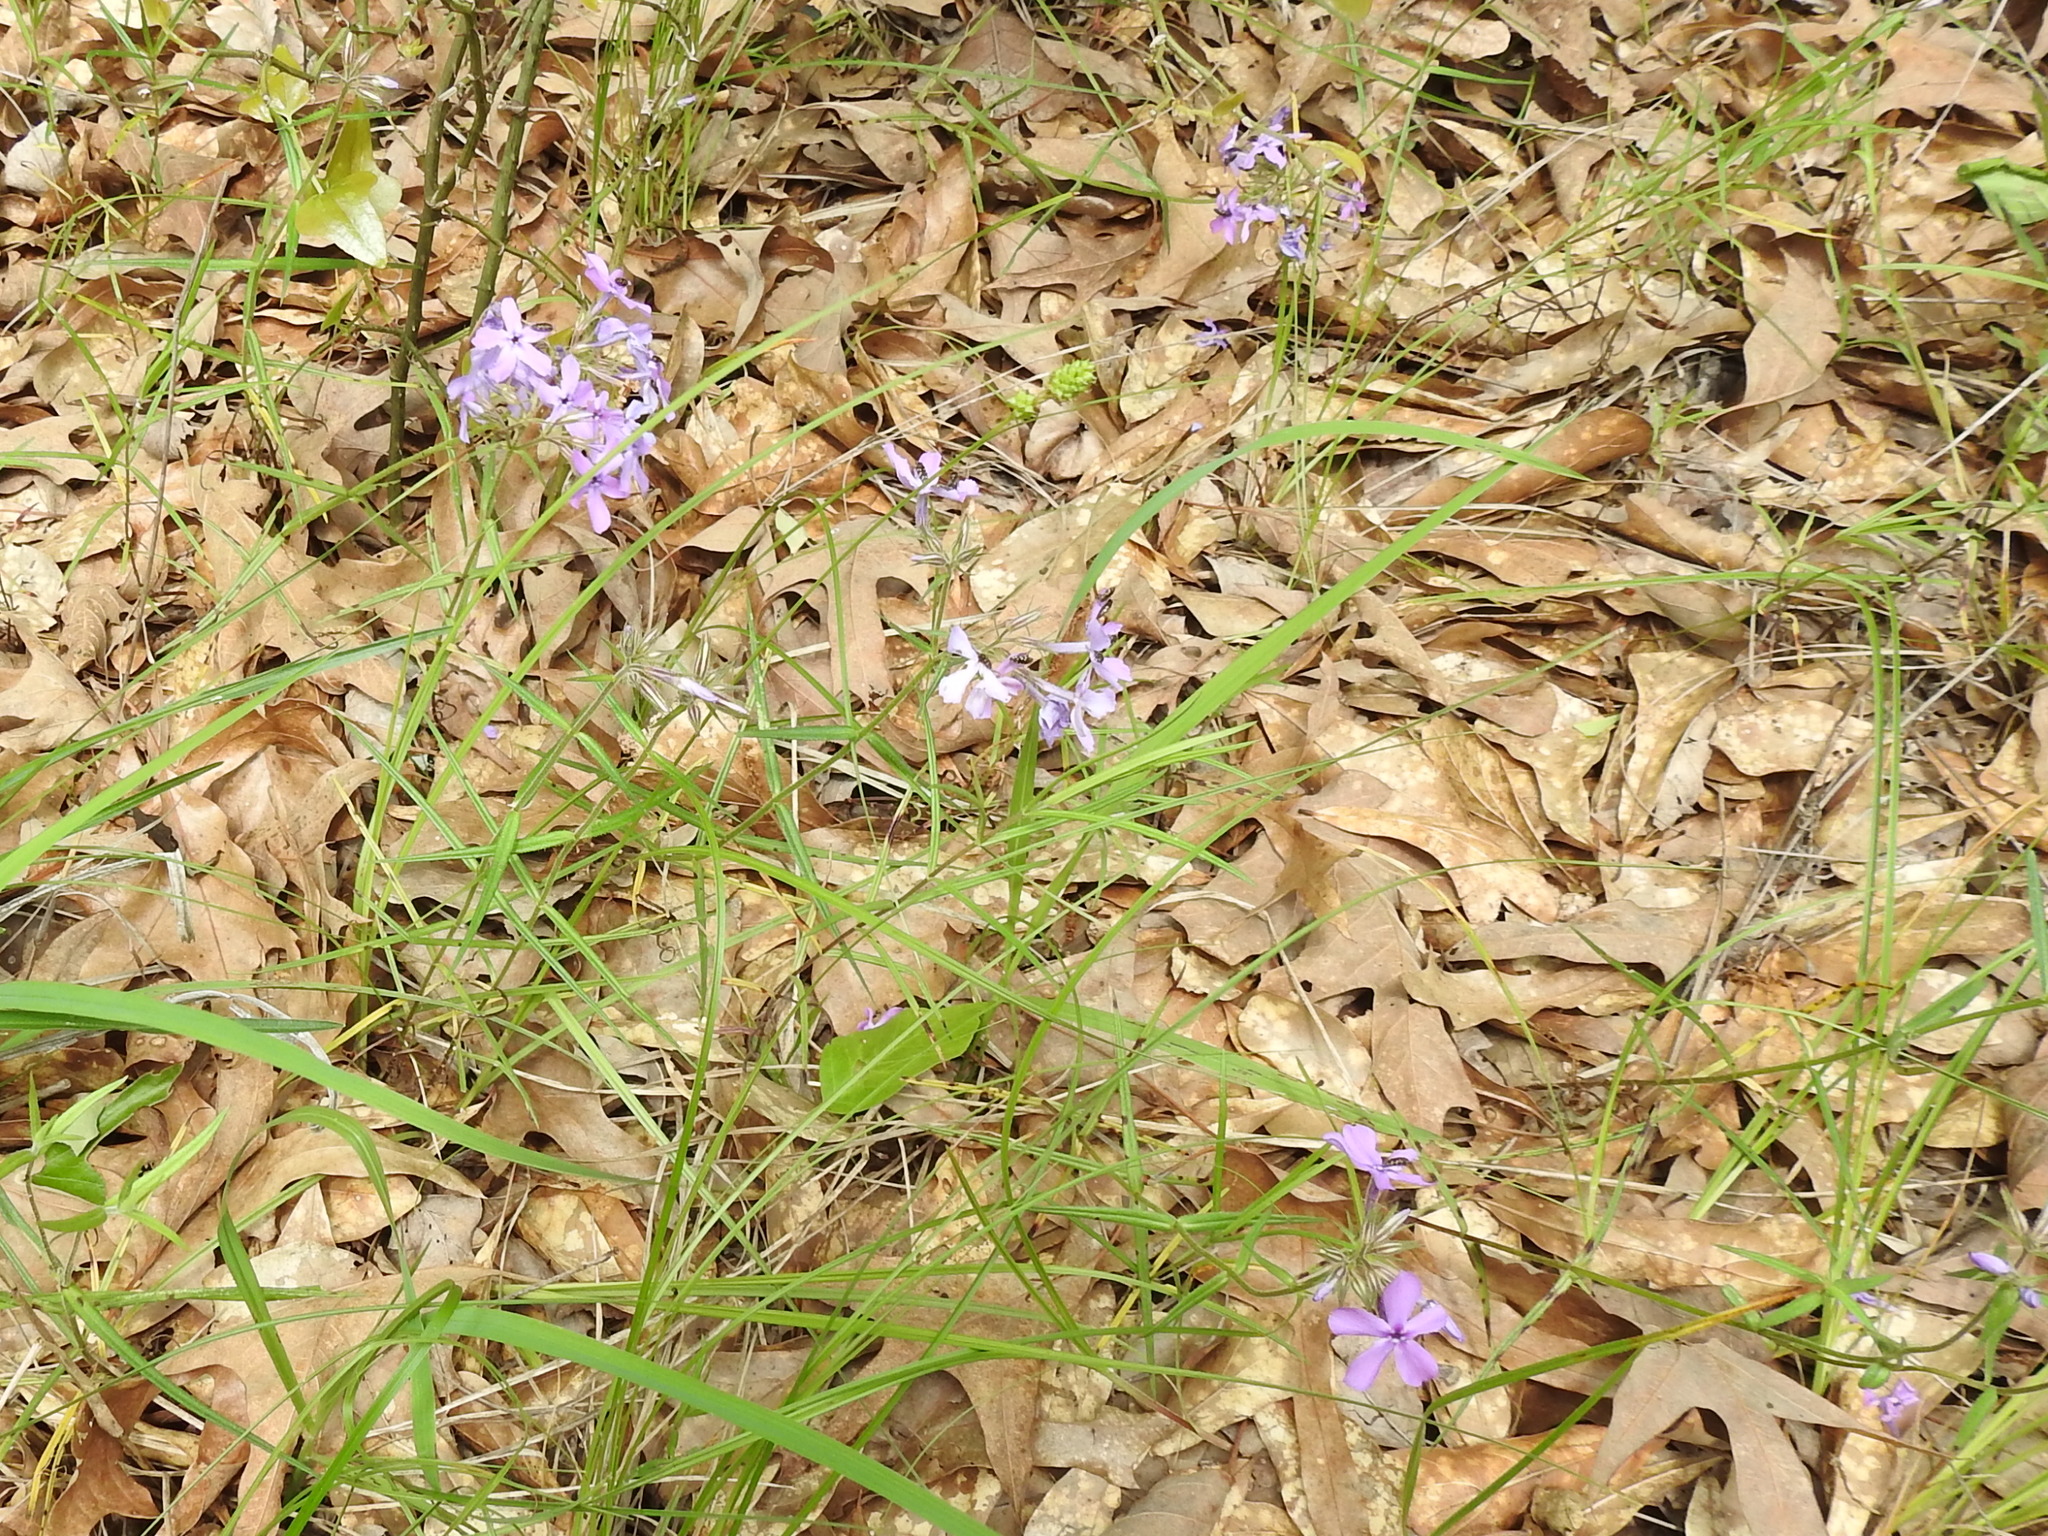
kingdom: Plantae
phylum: Tracheophyta
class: Magnoliopsida
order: Ericales
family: Polemoniaceae
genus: Phlox
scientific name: Phlox pilosa
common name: Prairie phlox
